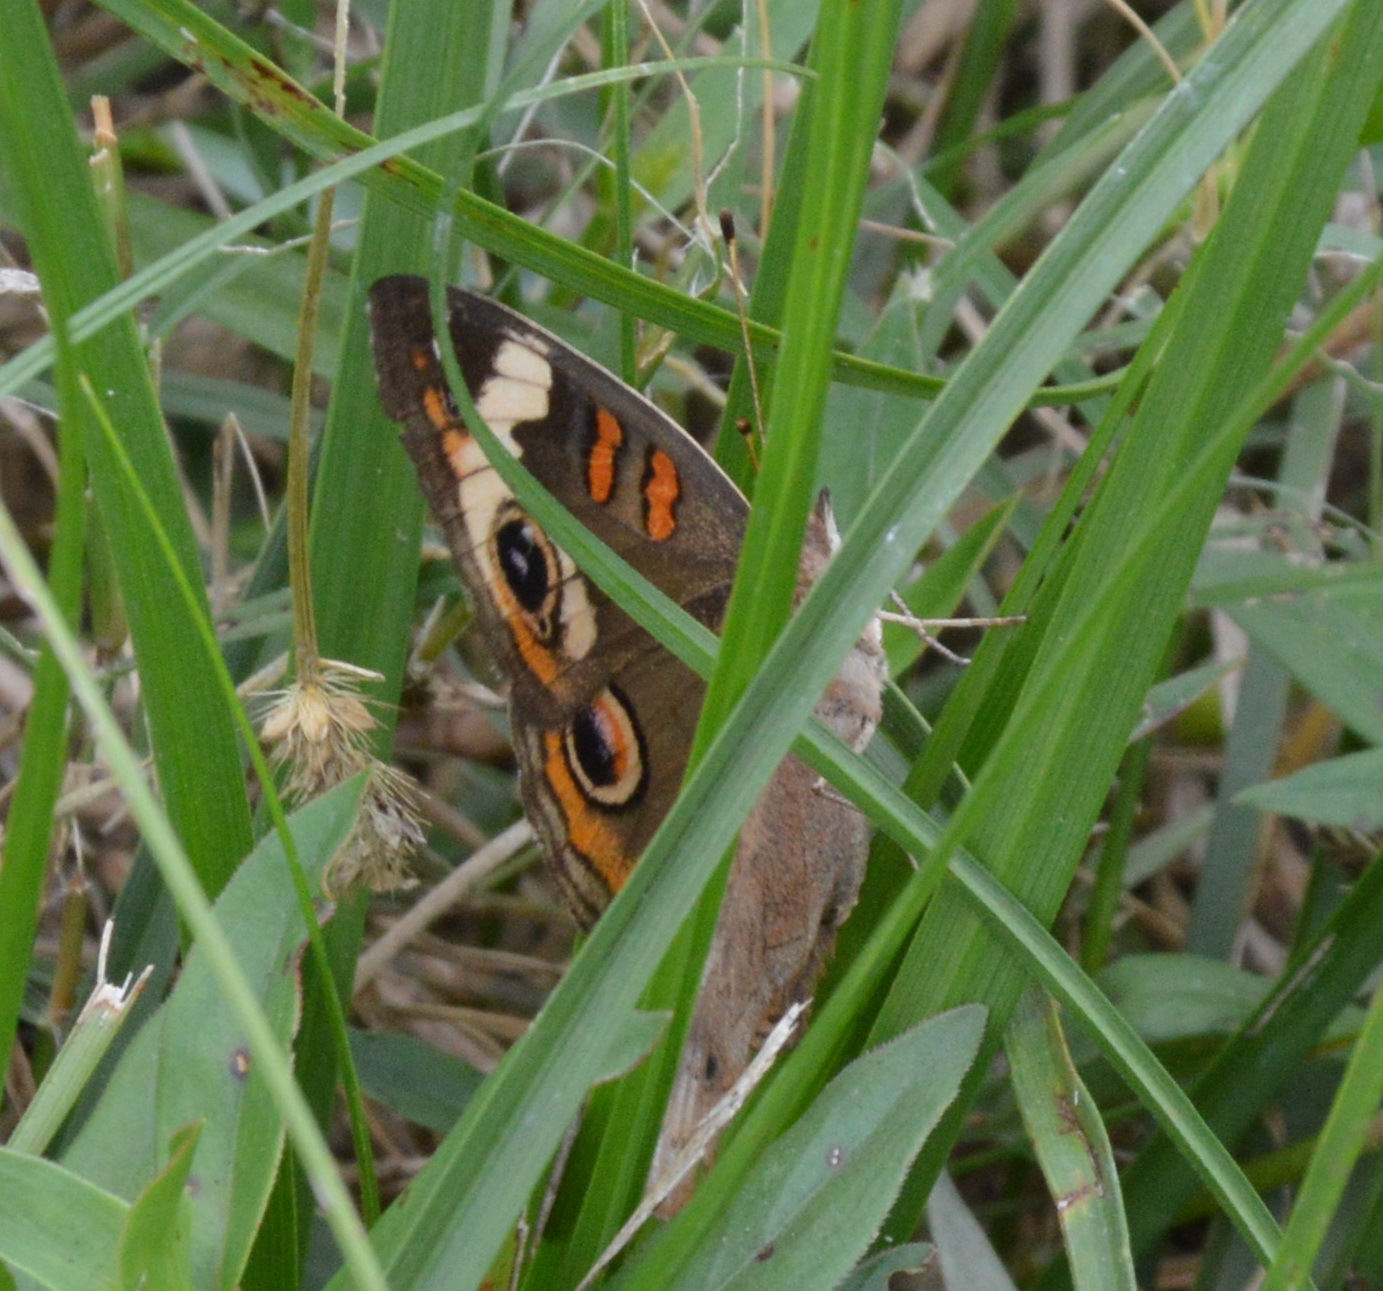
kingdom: Animalia
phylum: Arthropoda
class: Insecta
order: Lepidoptera
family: Nymphalidae
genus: Junonia
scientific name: Junonia coenia
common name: Common buckeye
